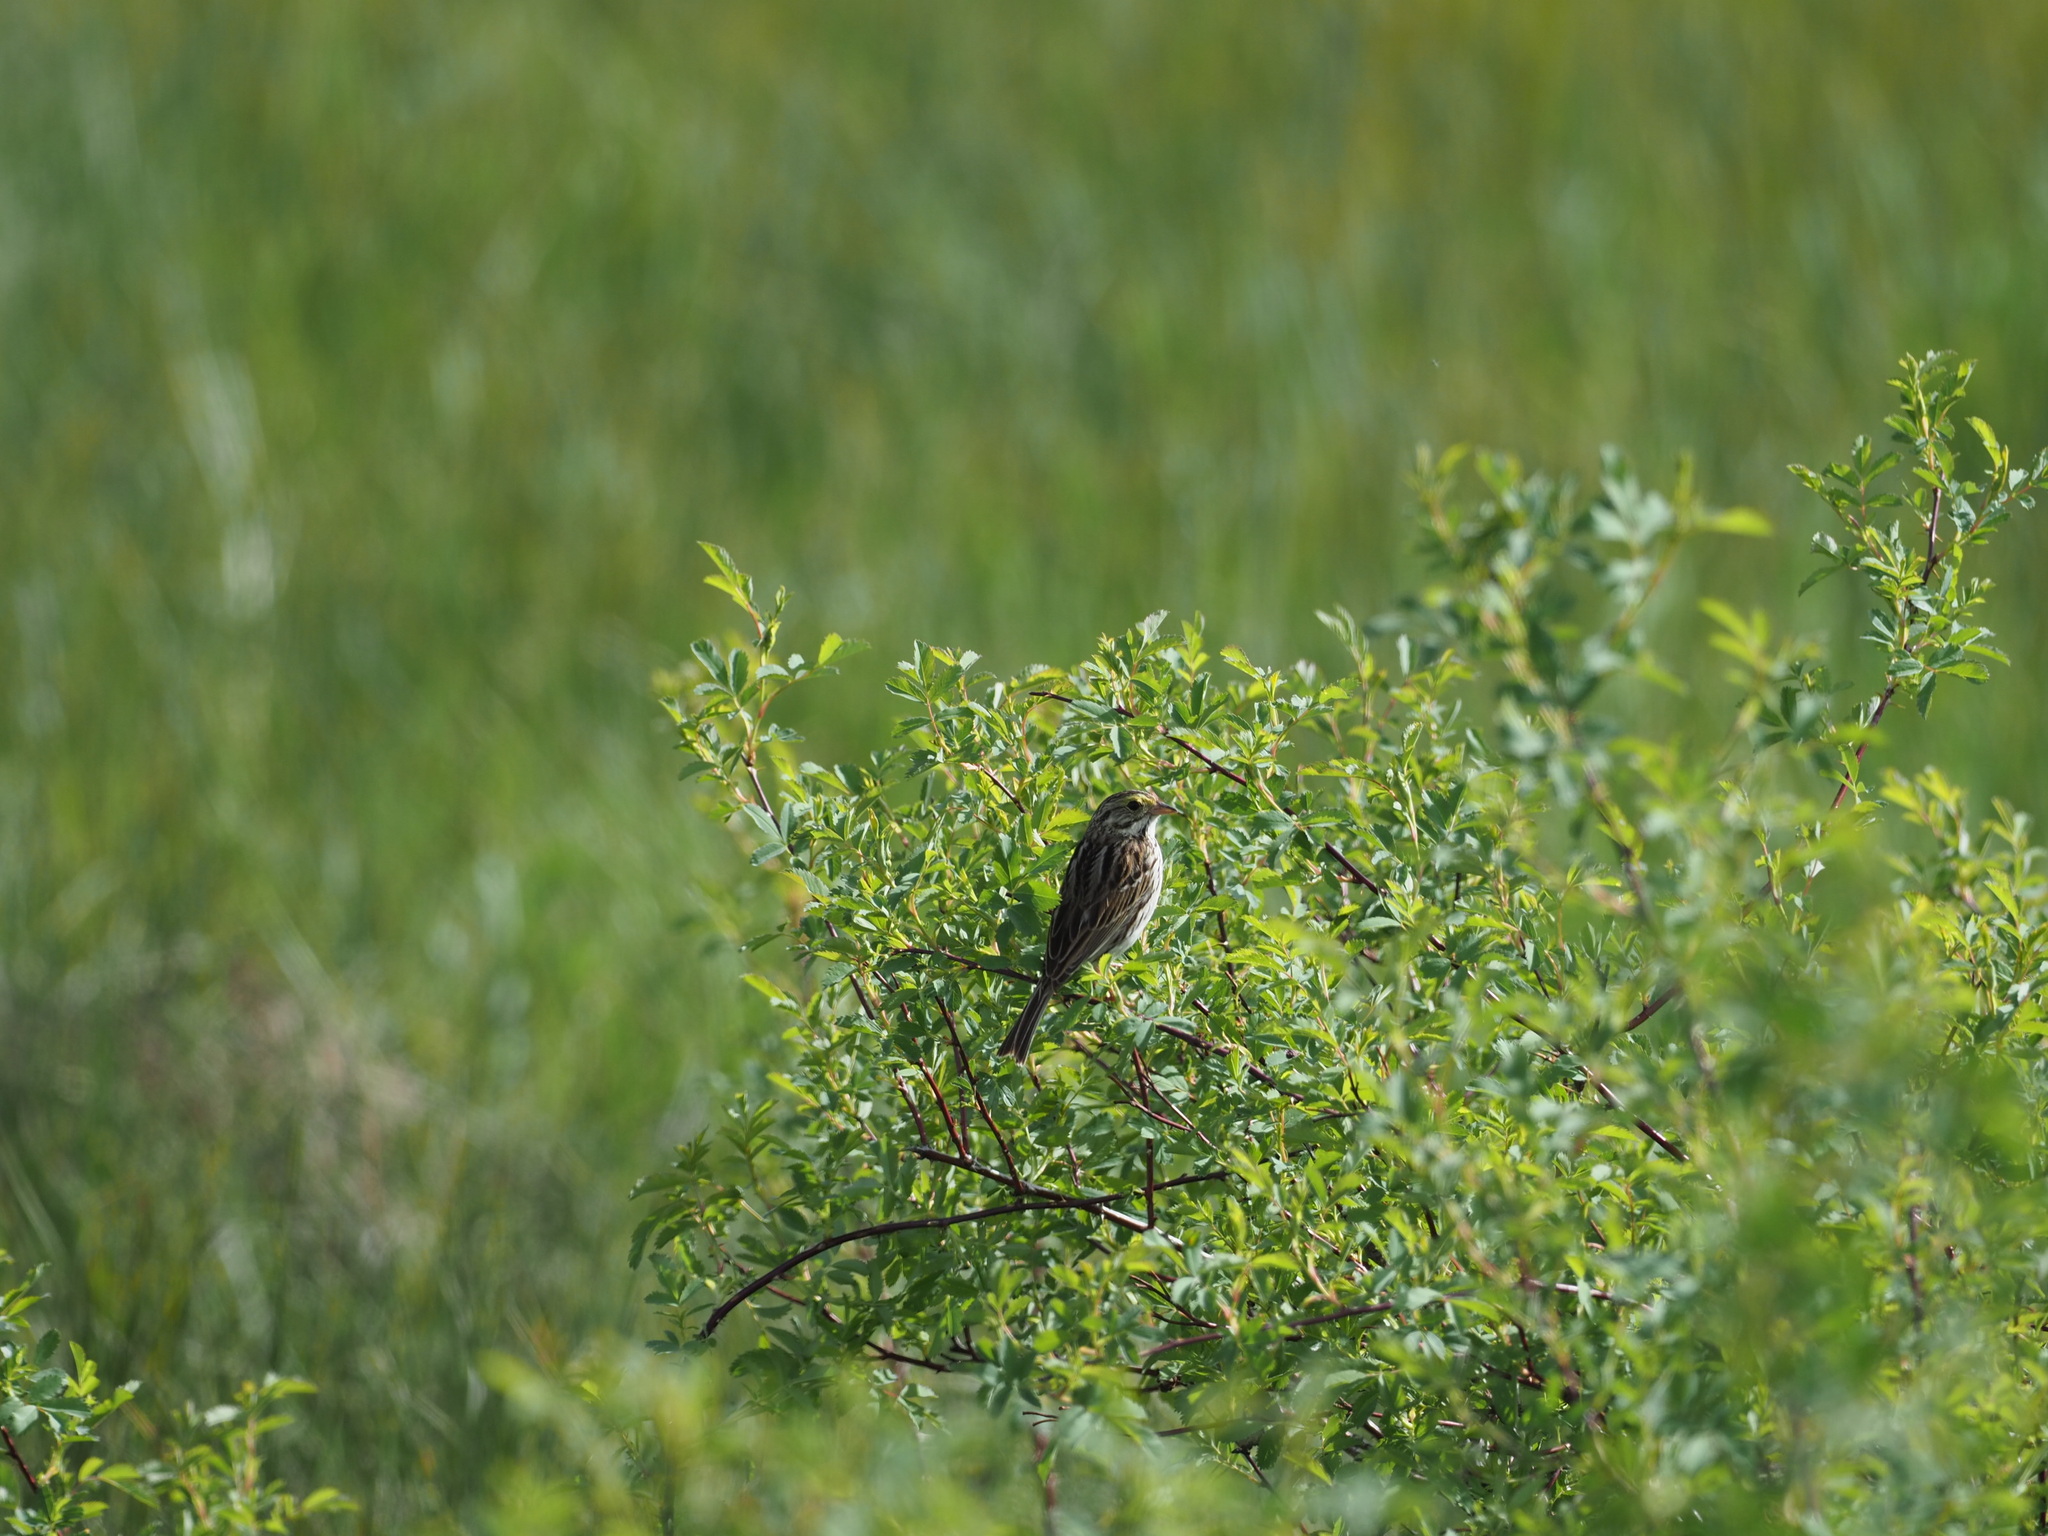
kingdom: Animalia
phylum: Chordata
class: Aves
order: Passeriformes
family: Passerellidae
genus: Passerculus
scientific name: Passerculus sandwichensis
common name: Savannah sparrow
